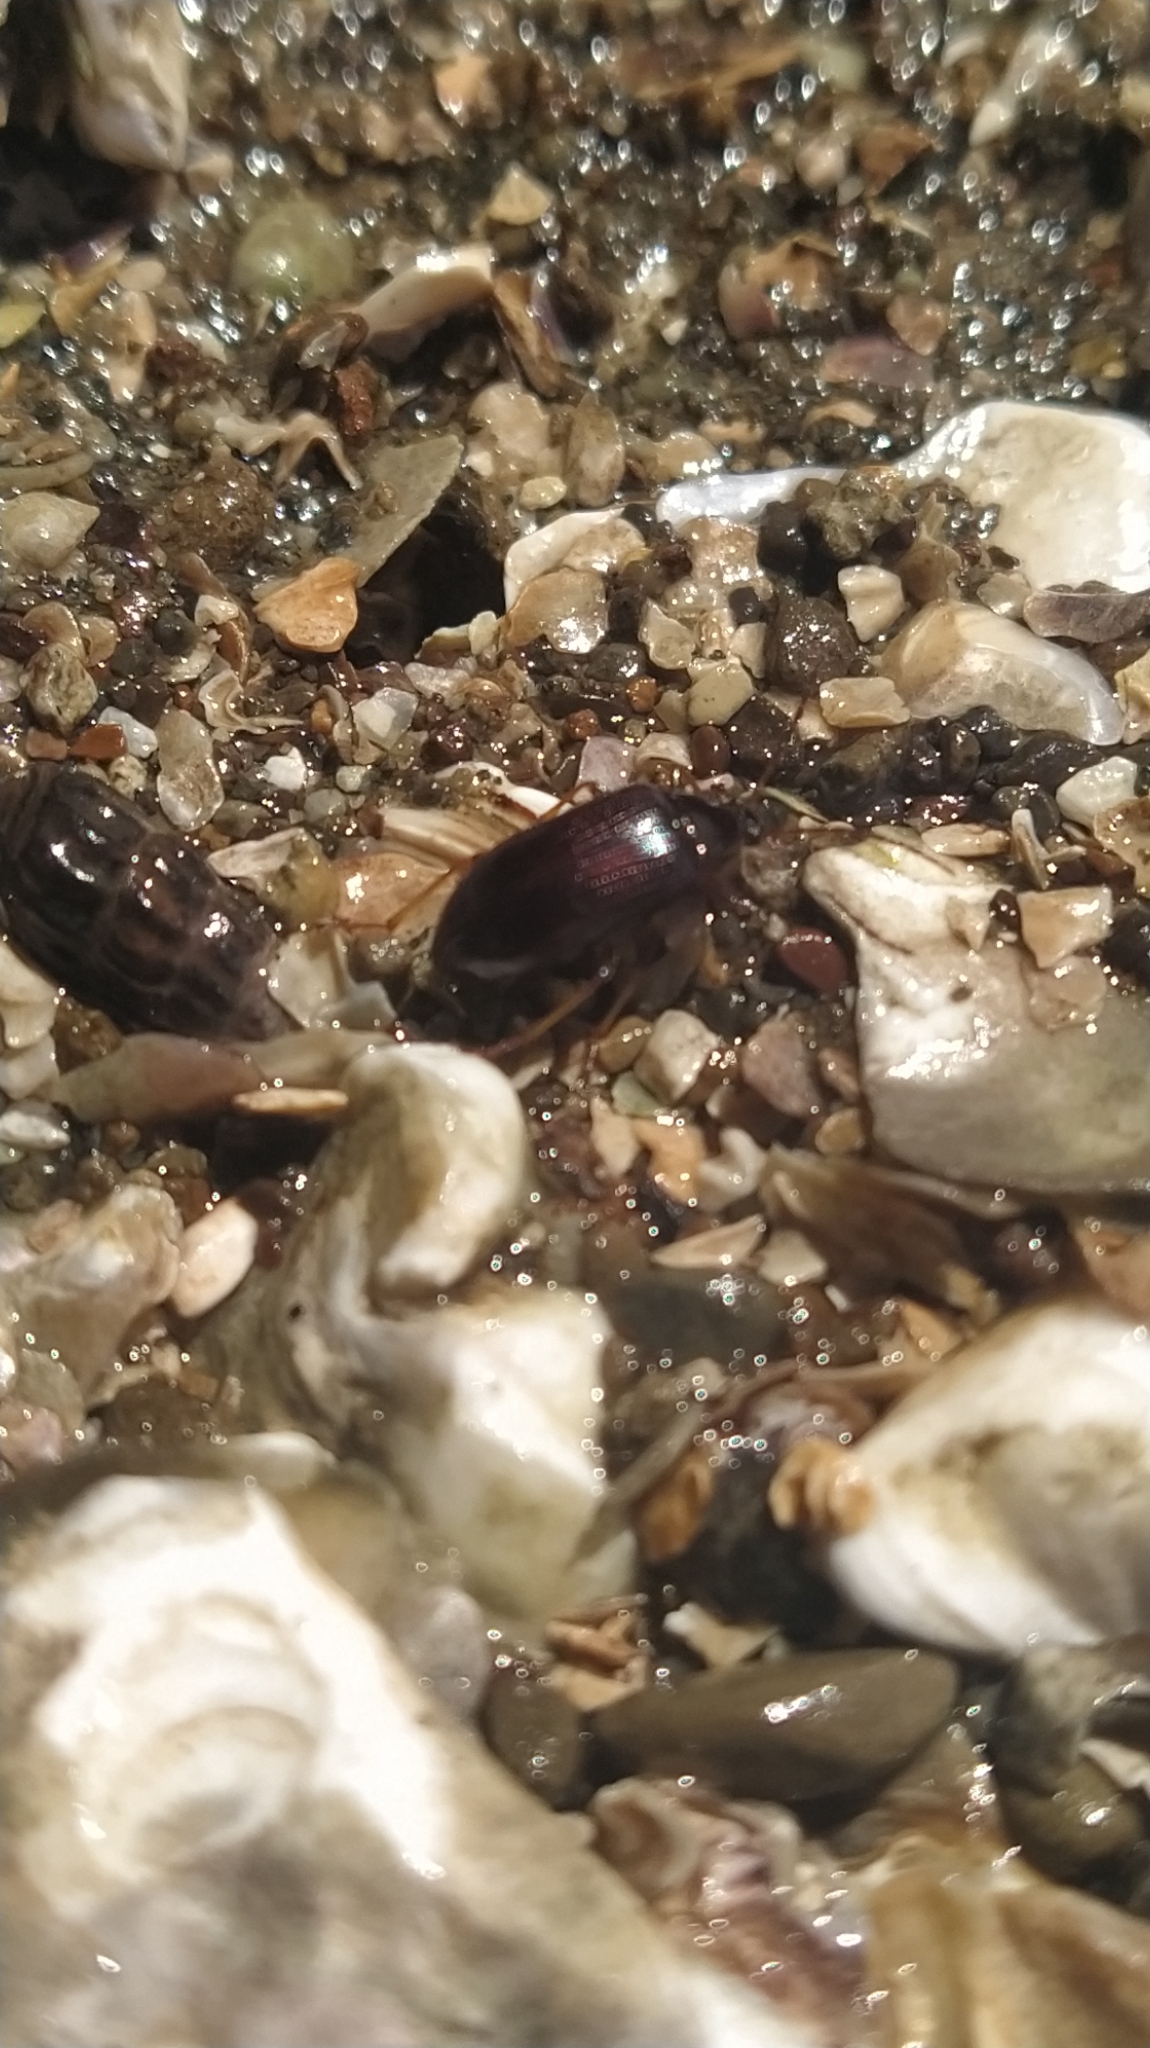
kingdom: Animalia
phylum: Arthropoda
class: Insecta
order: Coleoptera
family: Tenebrionidae
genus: Tanychilus
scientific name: Tanychilus
